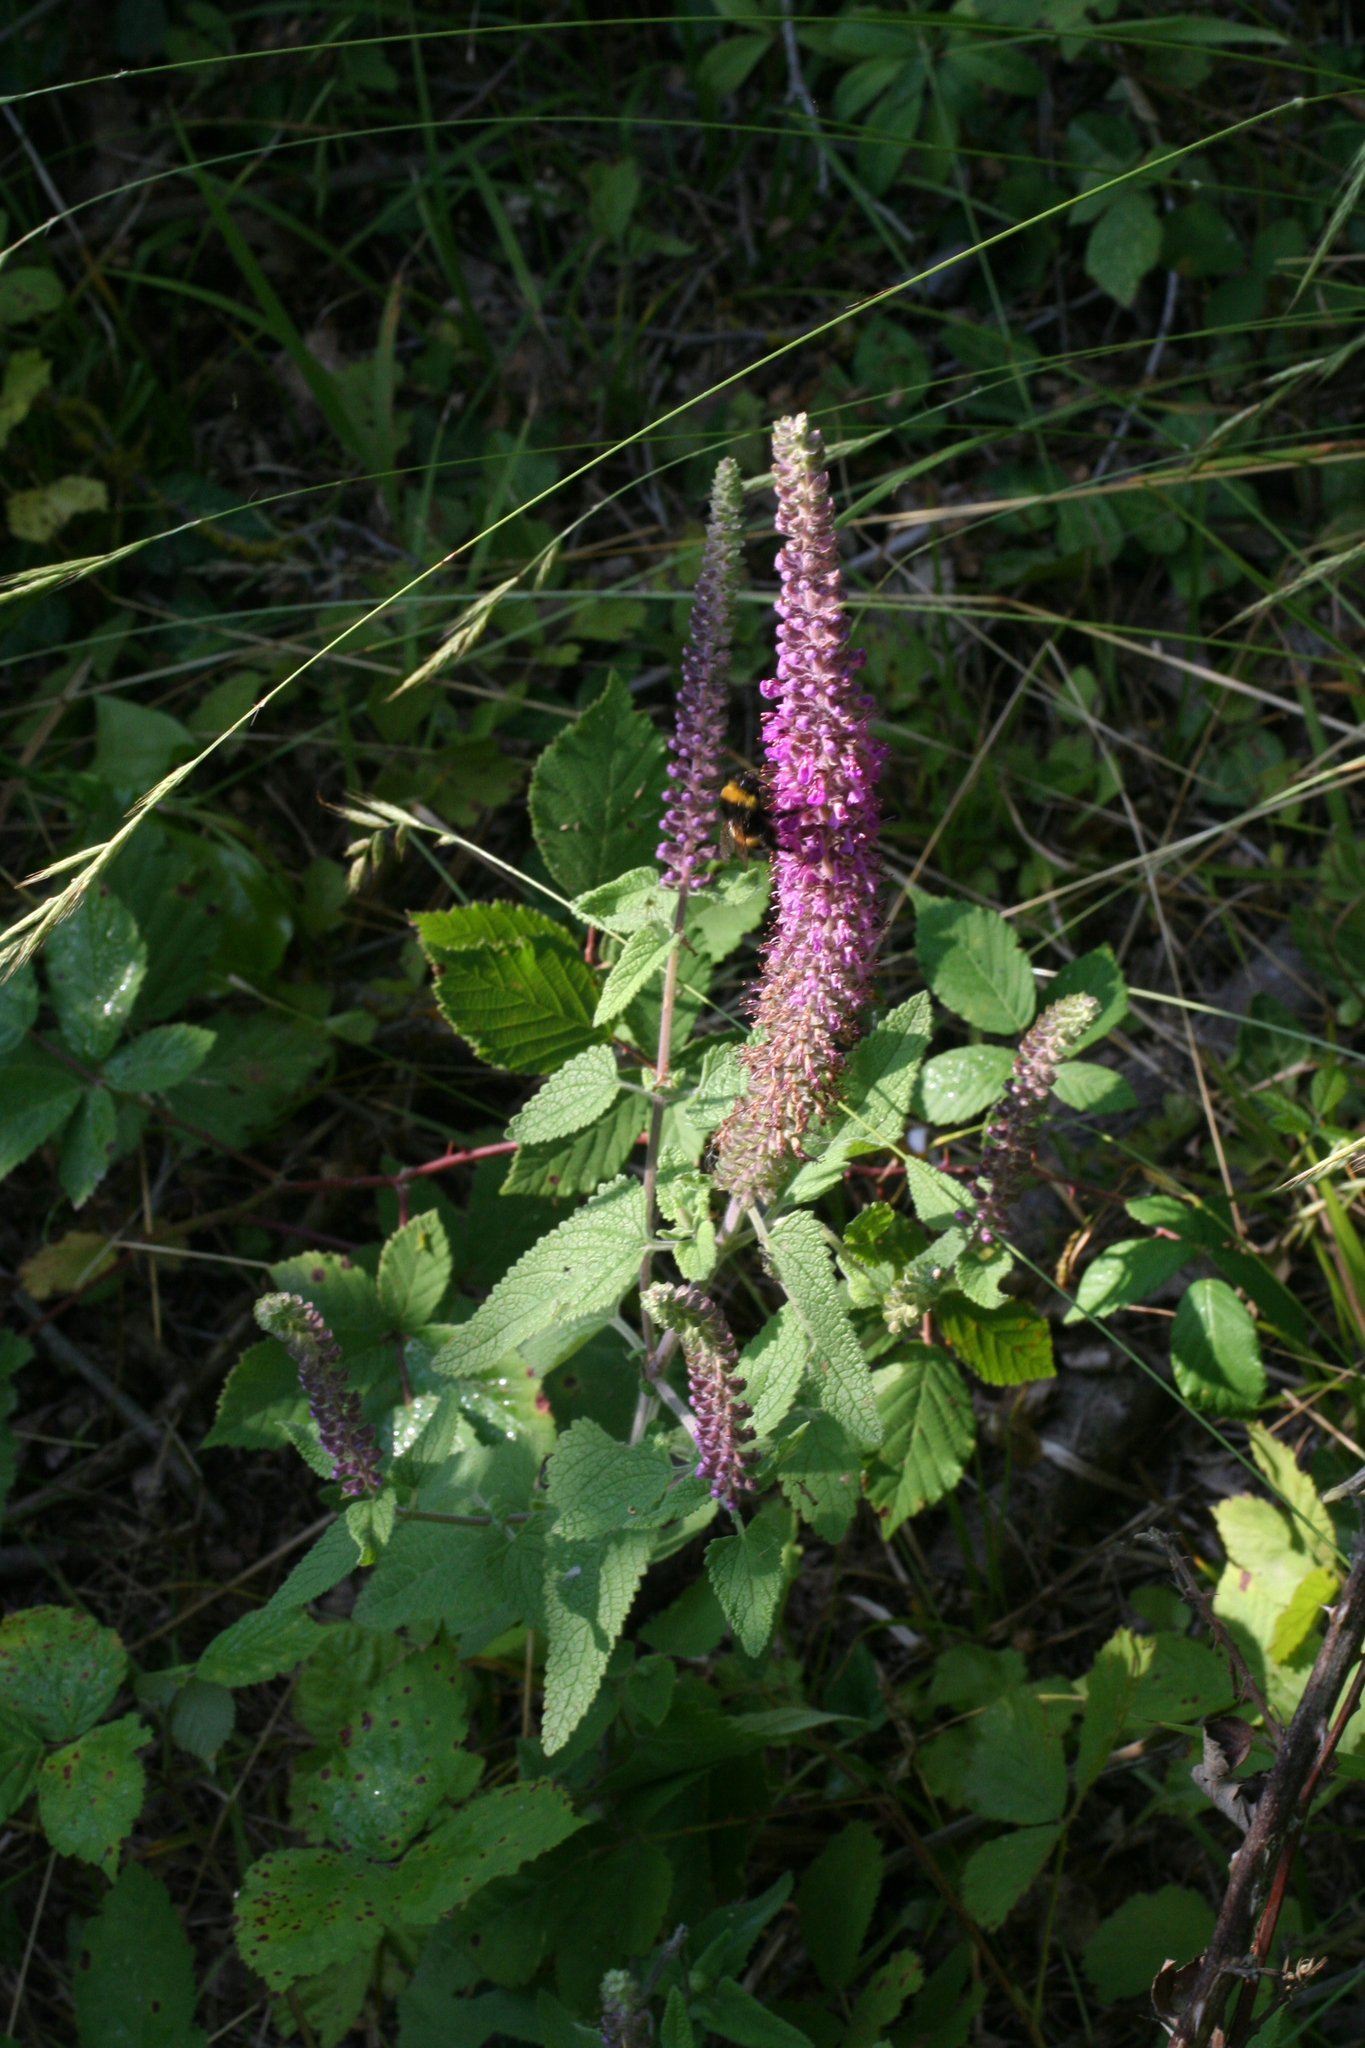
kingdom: Plantae
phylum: Tracheophyta
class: Magnoliopsida
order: Lamiales
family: Lamiaceae
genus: Teucrium
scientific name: Teucrium hircanicum
